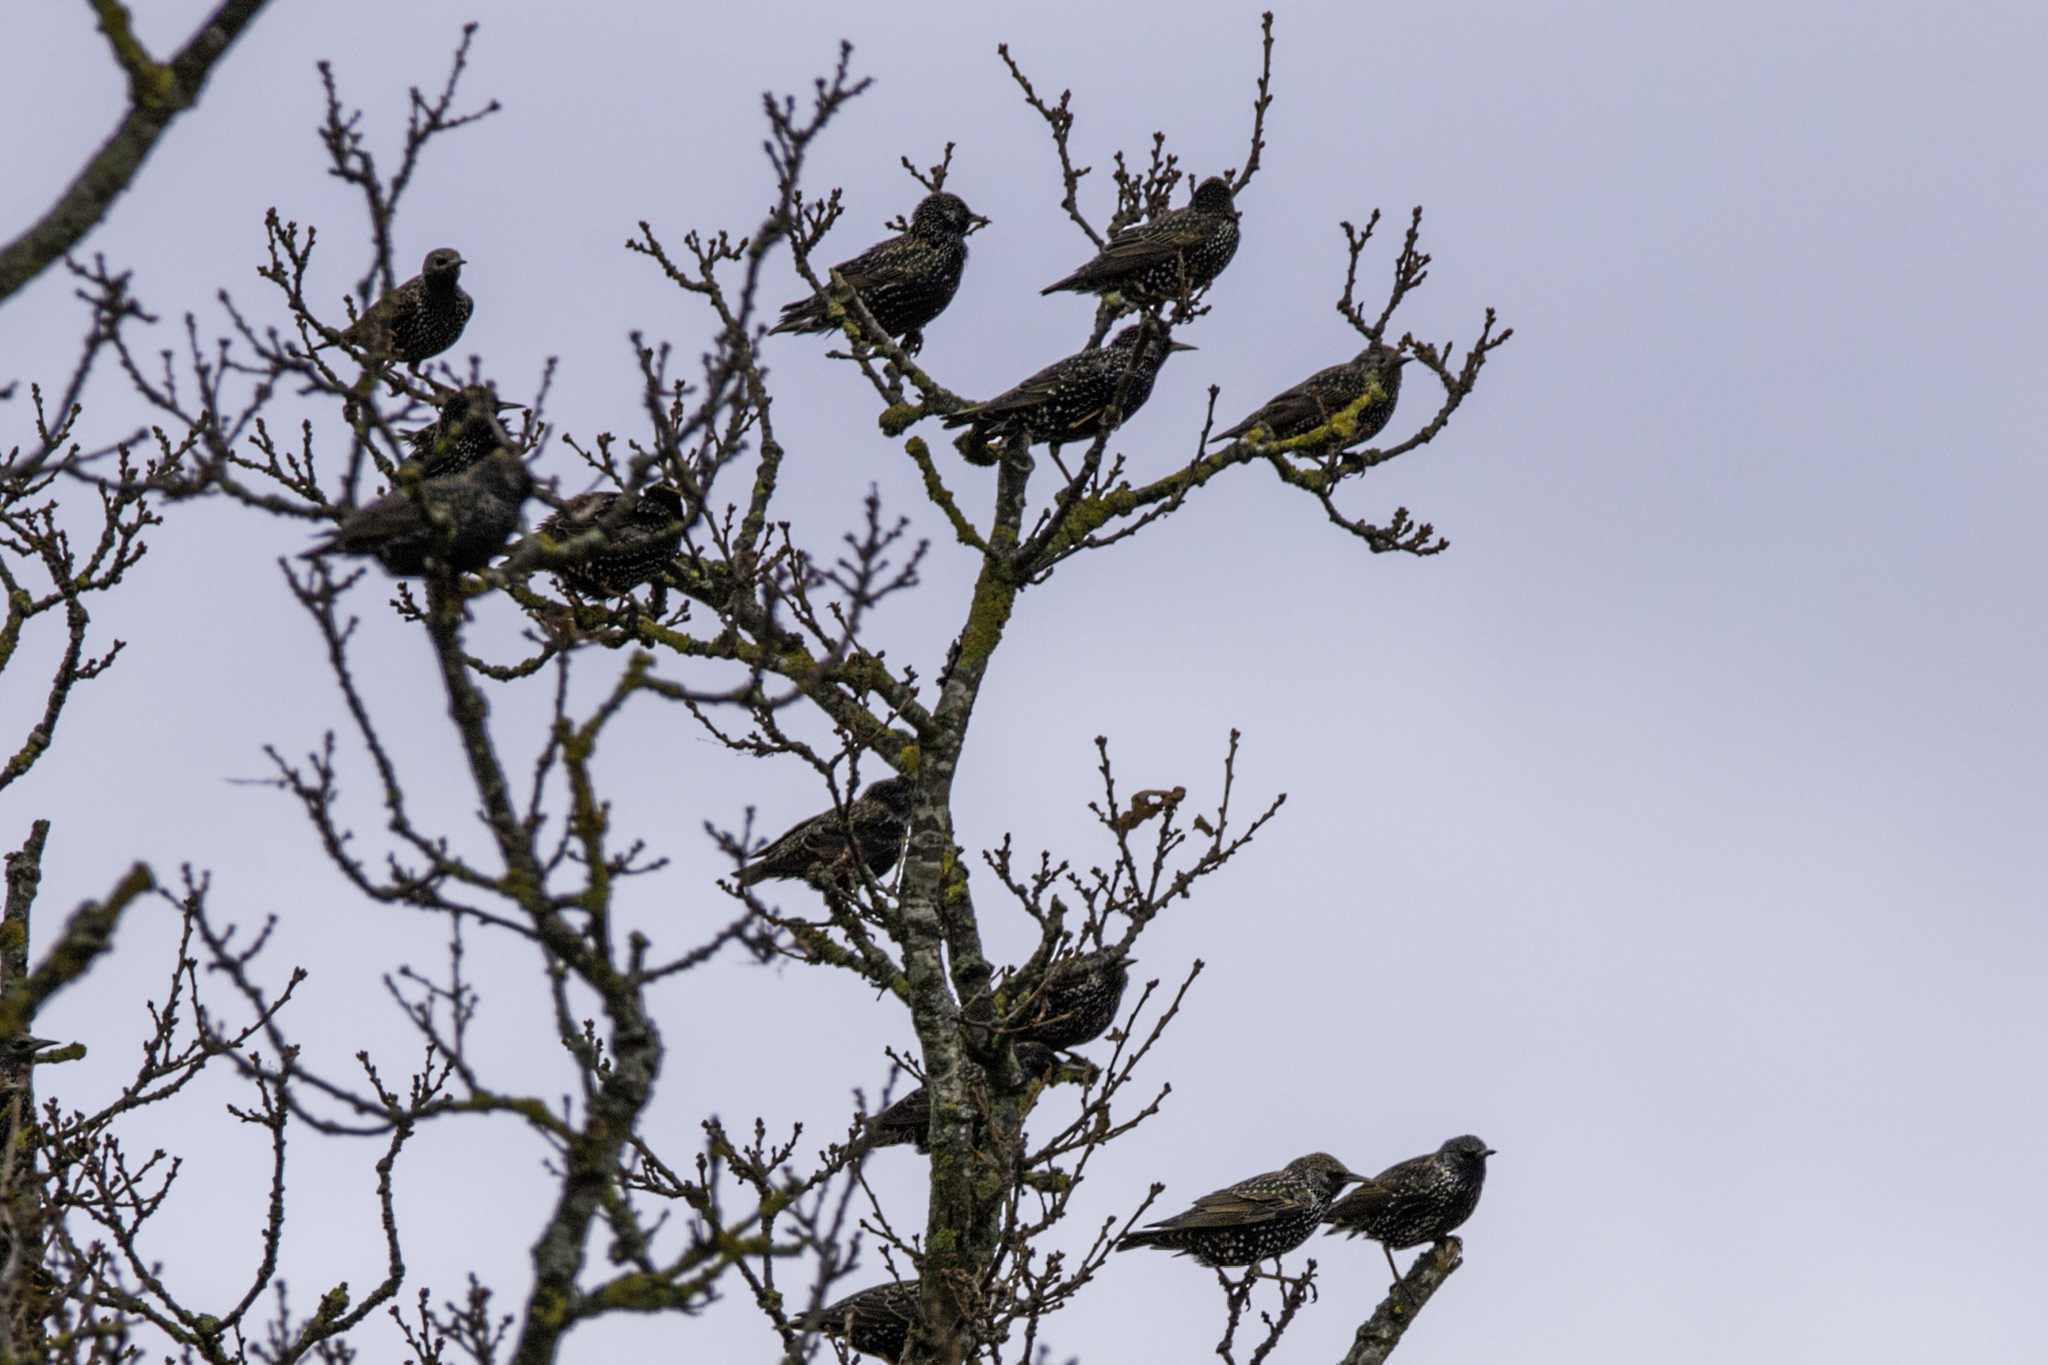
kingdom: Animalia
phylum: Chordata
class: Aves
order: Passeriformes
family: Sturnidae
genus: Sturnus
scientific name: Sturnus vulgaris
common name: Common starling
